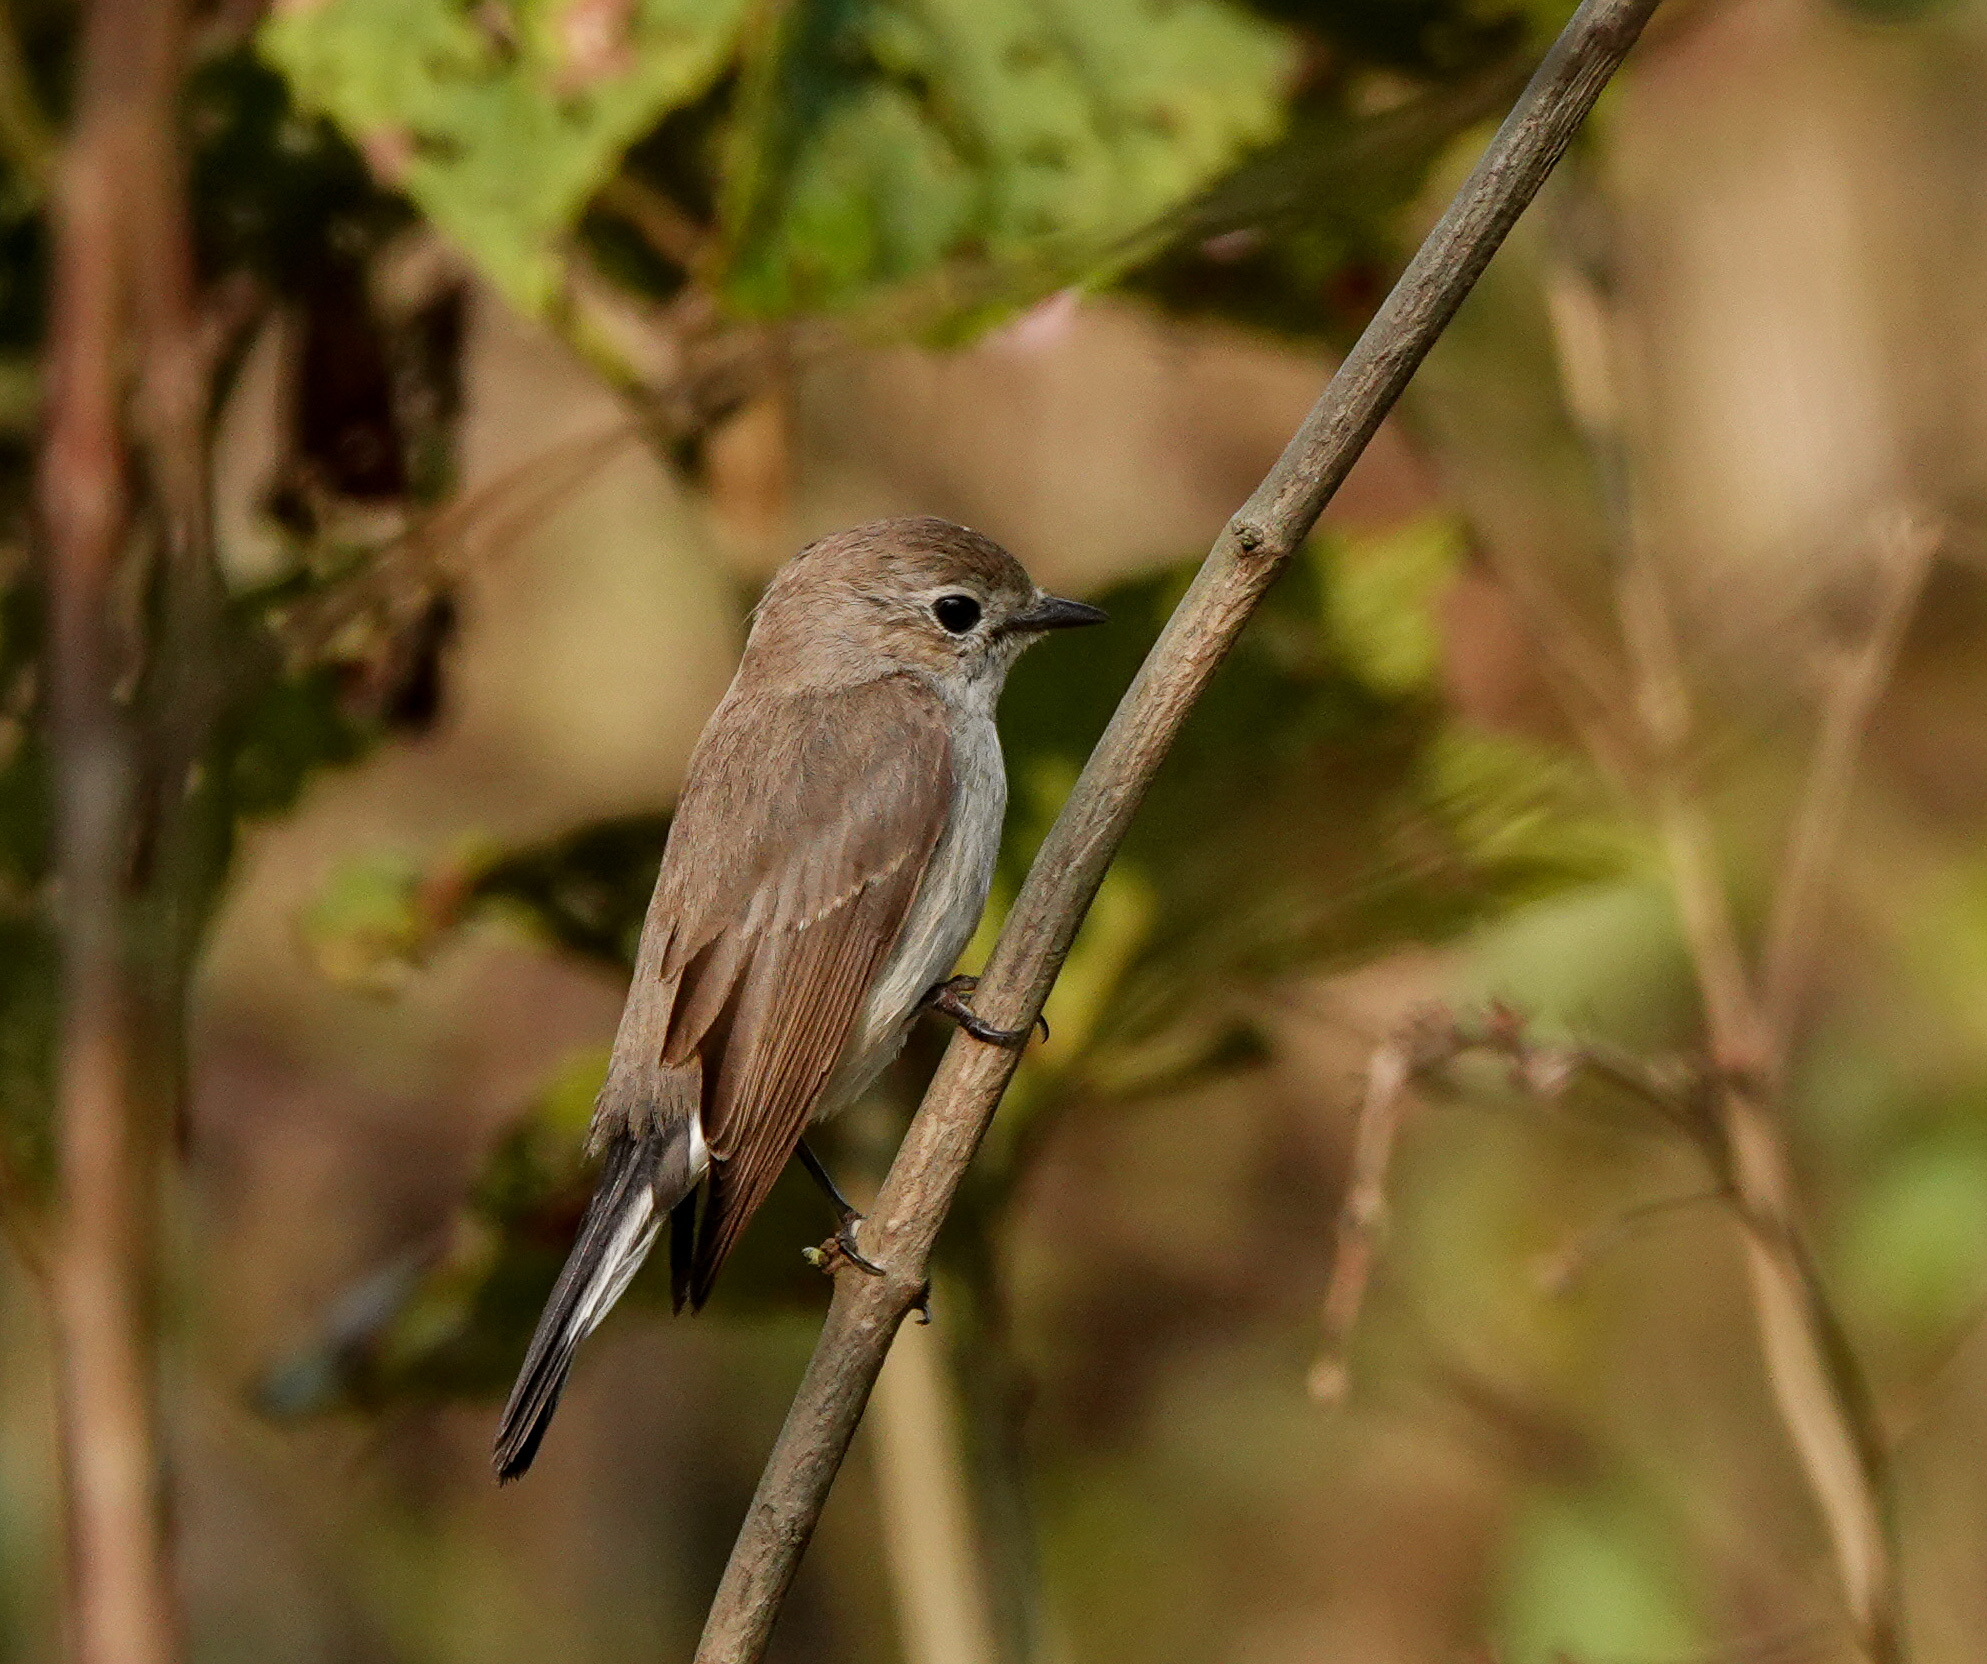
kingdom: Animalia
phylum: Chordata
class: Aves
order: Passeriformes
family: Muscicapidae
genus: Ficedula
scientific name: Ficedula albicilla
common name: Taiga flycatcher
